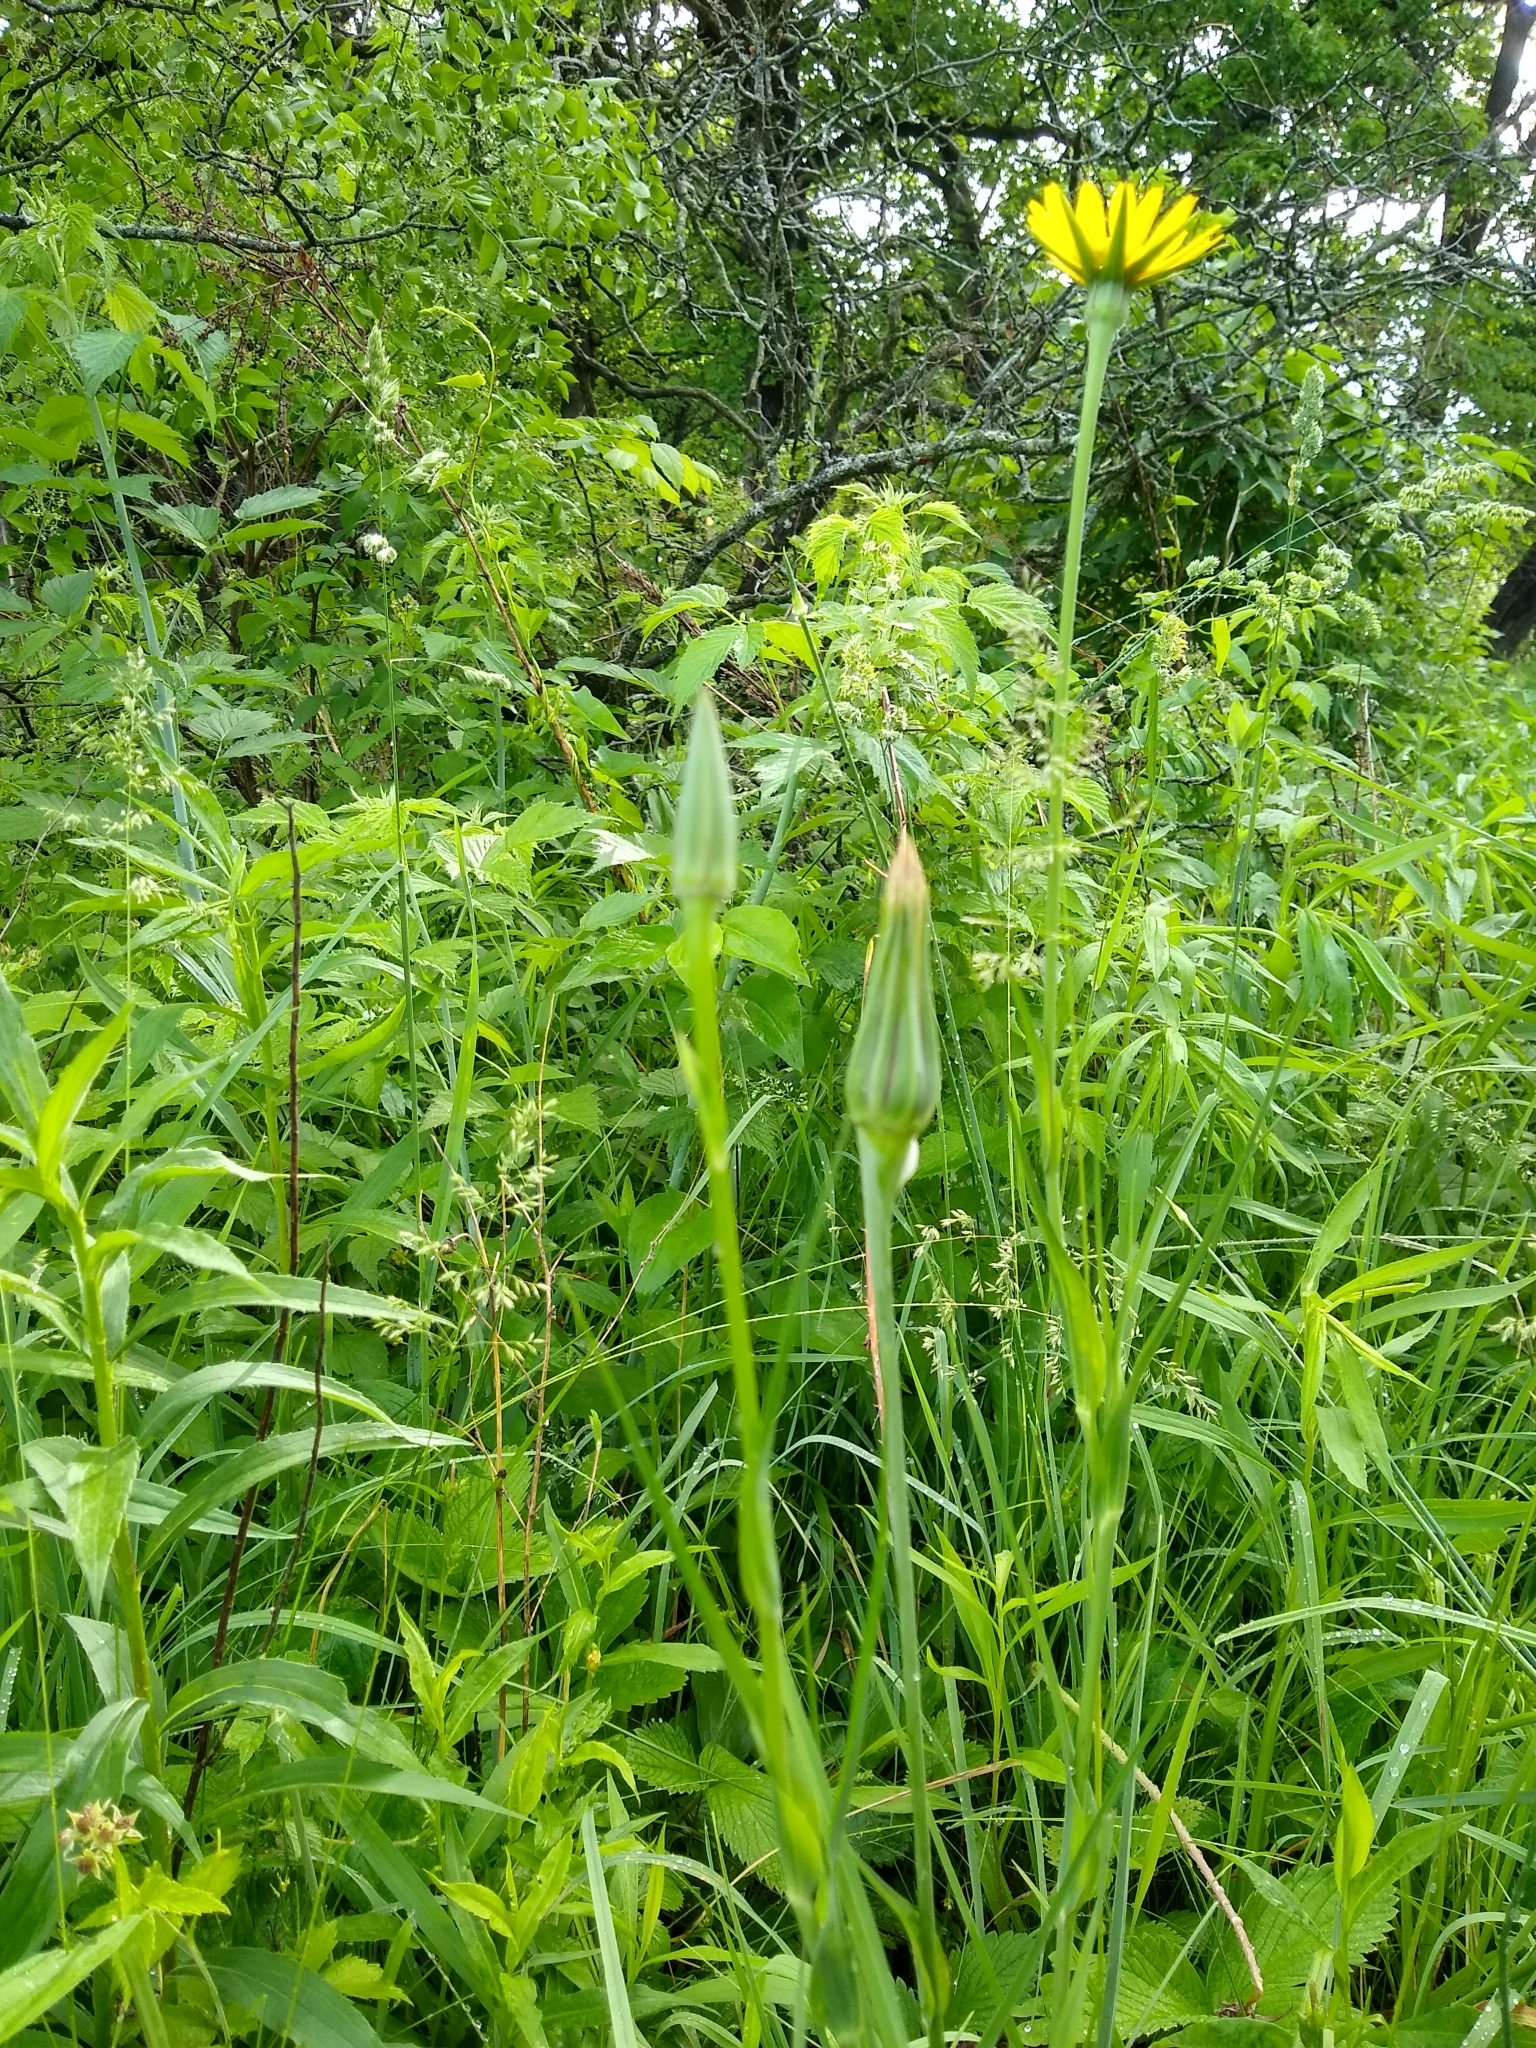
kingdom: Plantae
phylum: Tracheophyta
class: Magnoliopsida
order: Asterales
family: Asteraceae
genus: Tragopogon
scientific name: Tragopogon pratensis
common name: Goat's-beard
